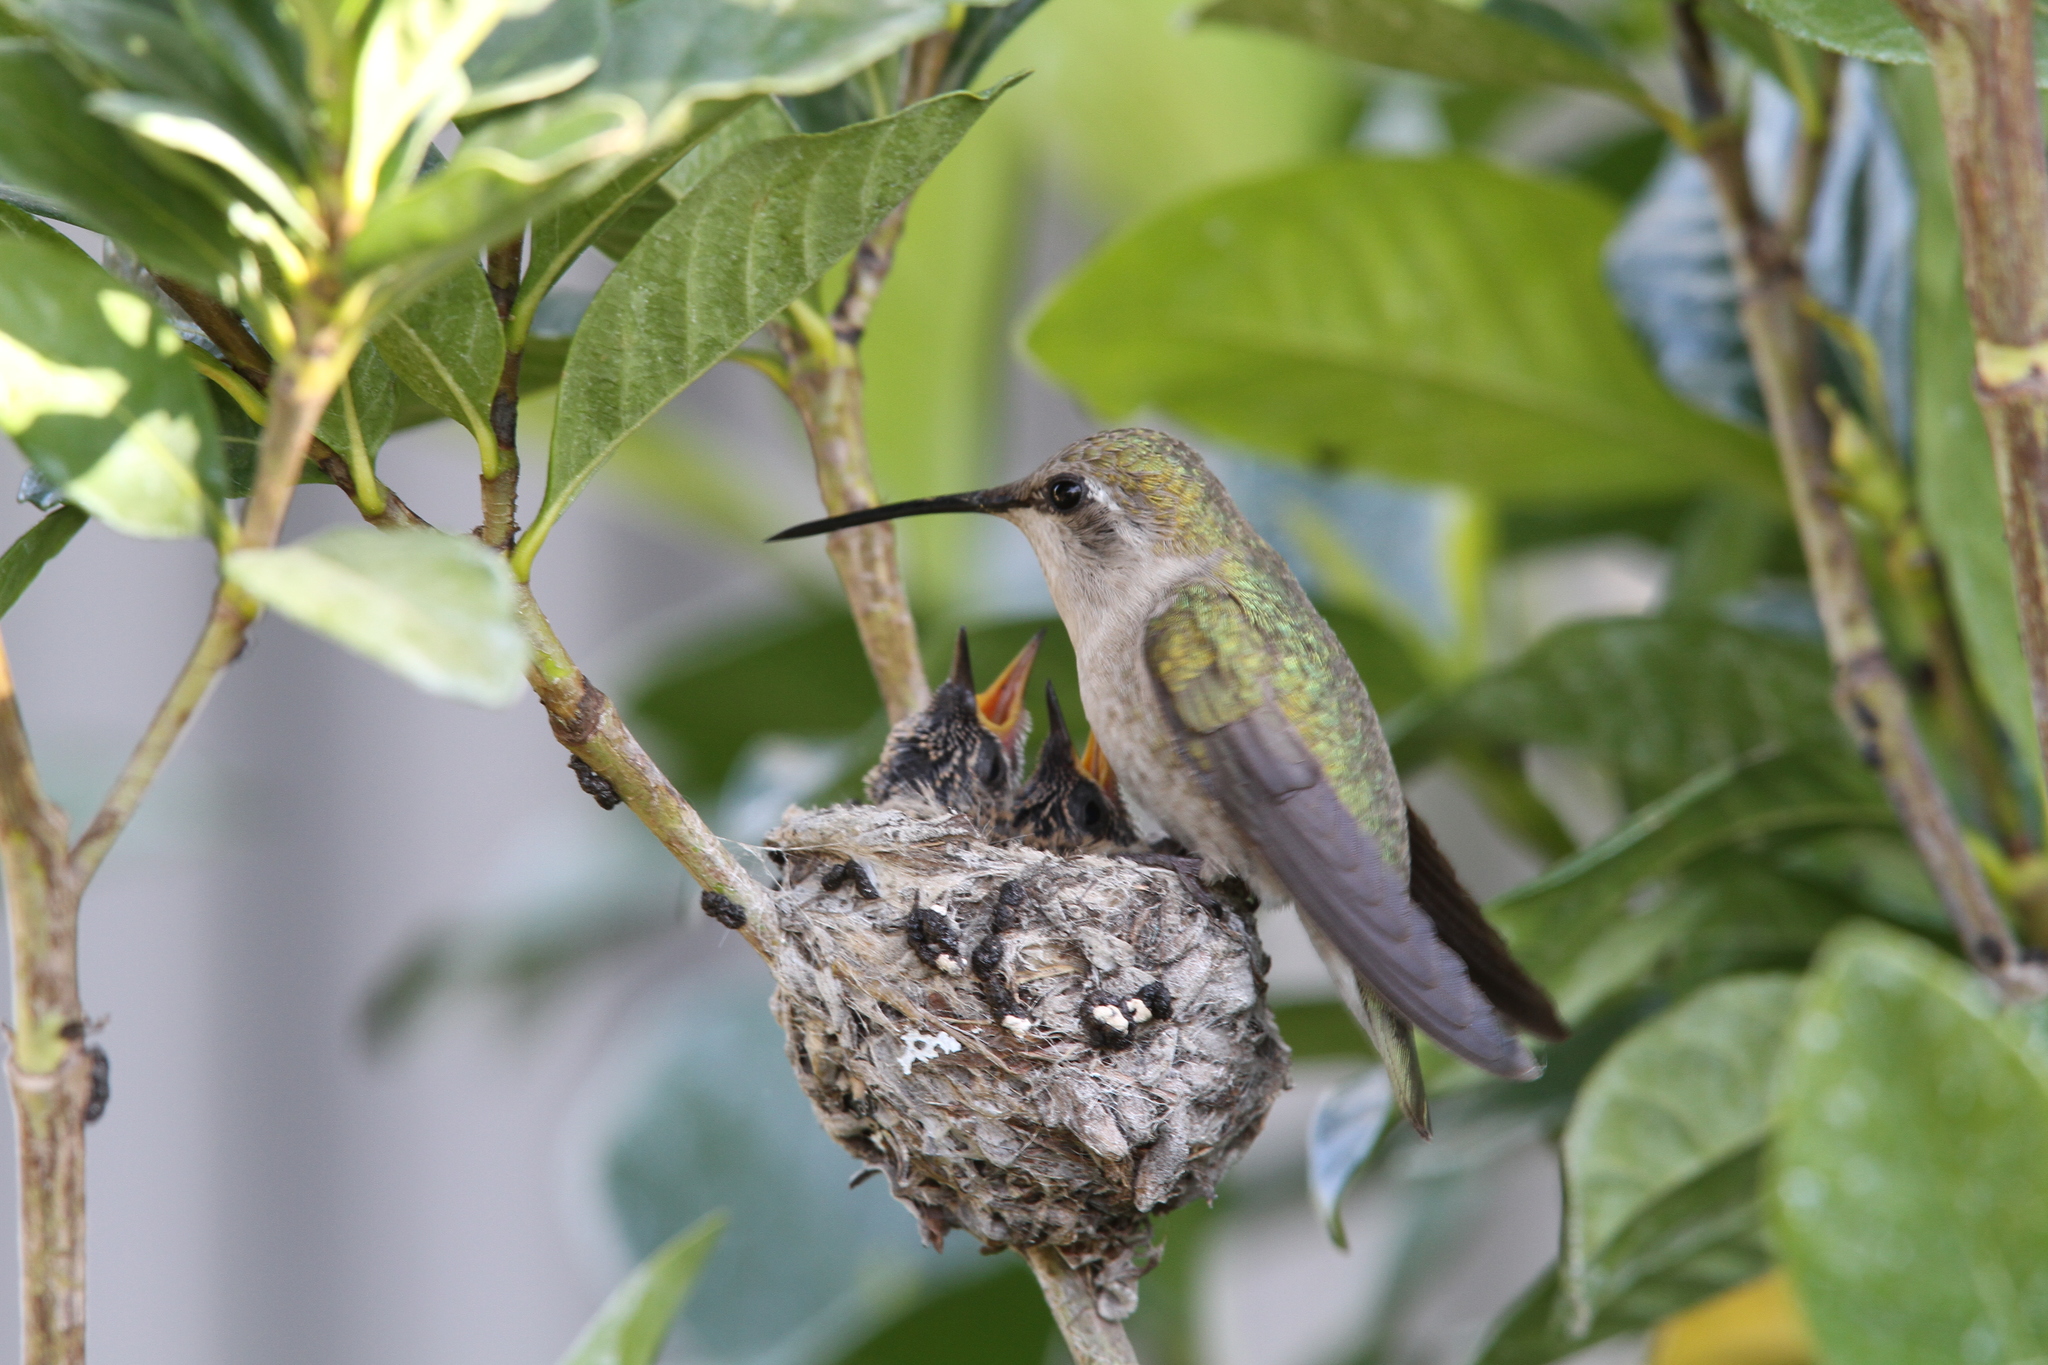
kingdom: Animalia
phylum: Chordata
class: Aves
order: Apodiformes
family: Trochilidae
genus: Archilochus
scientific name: Archilochus colubris
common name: Ruby-throated hummingbird
